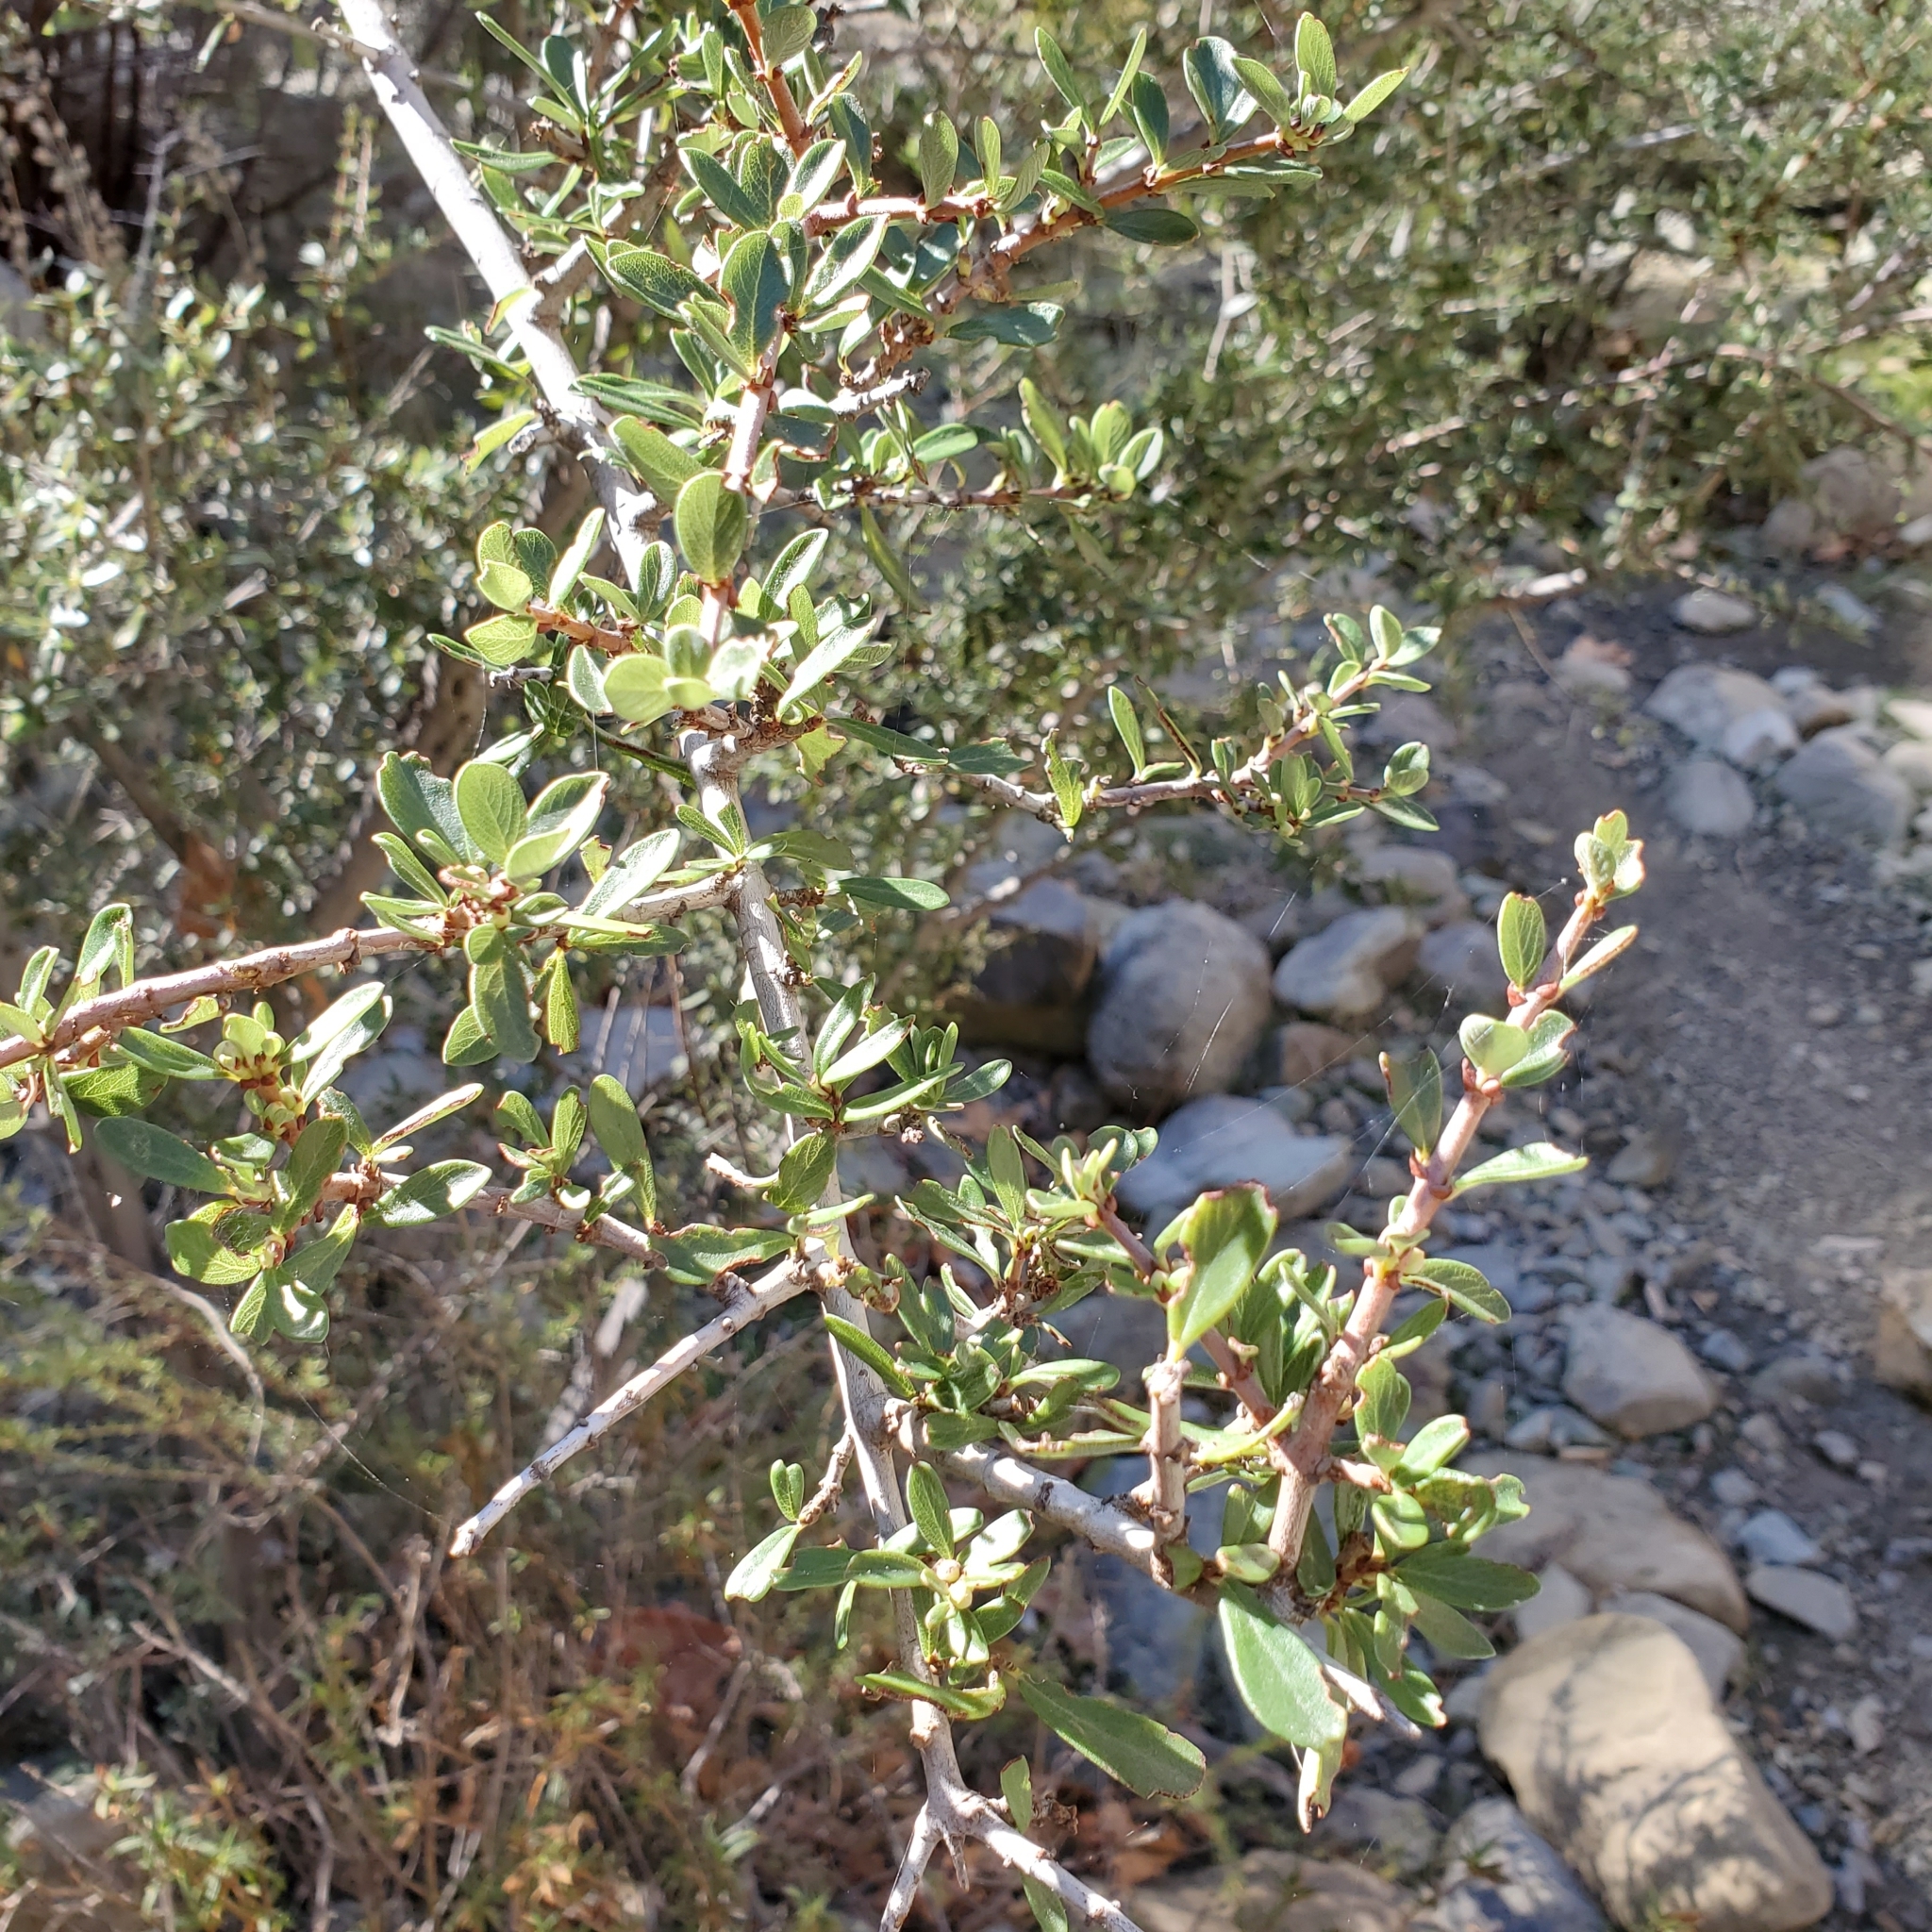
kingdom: Plantae
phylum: Tracheophyta
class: Magnoliopsida
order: Rosales
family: Rhamnaceae
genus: Ceanothus
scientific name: Ceanothus cuneatus
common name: Cuneate ceanothus
